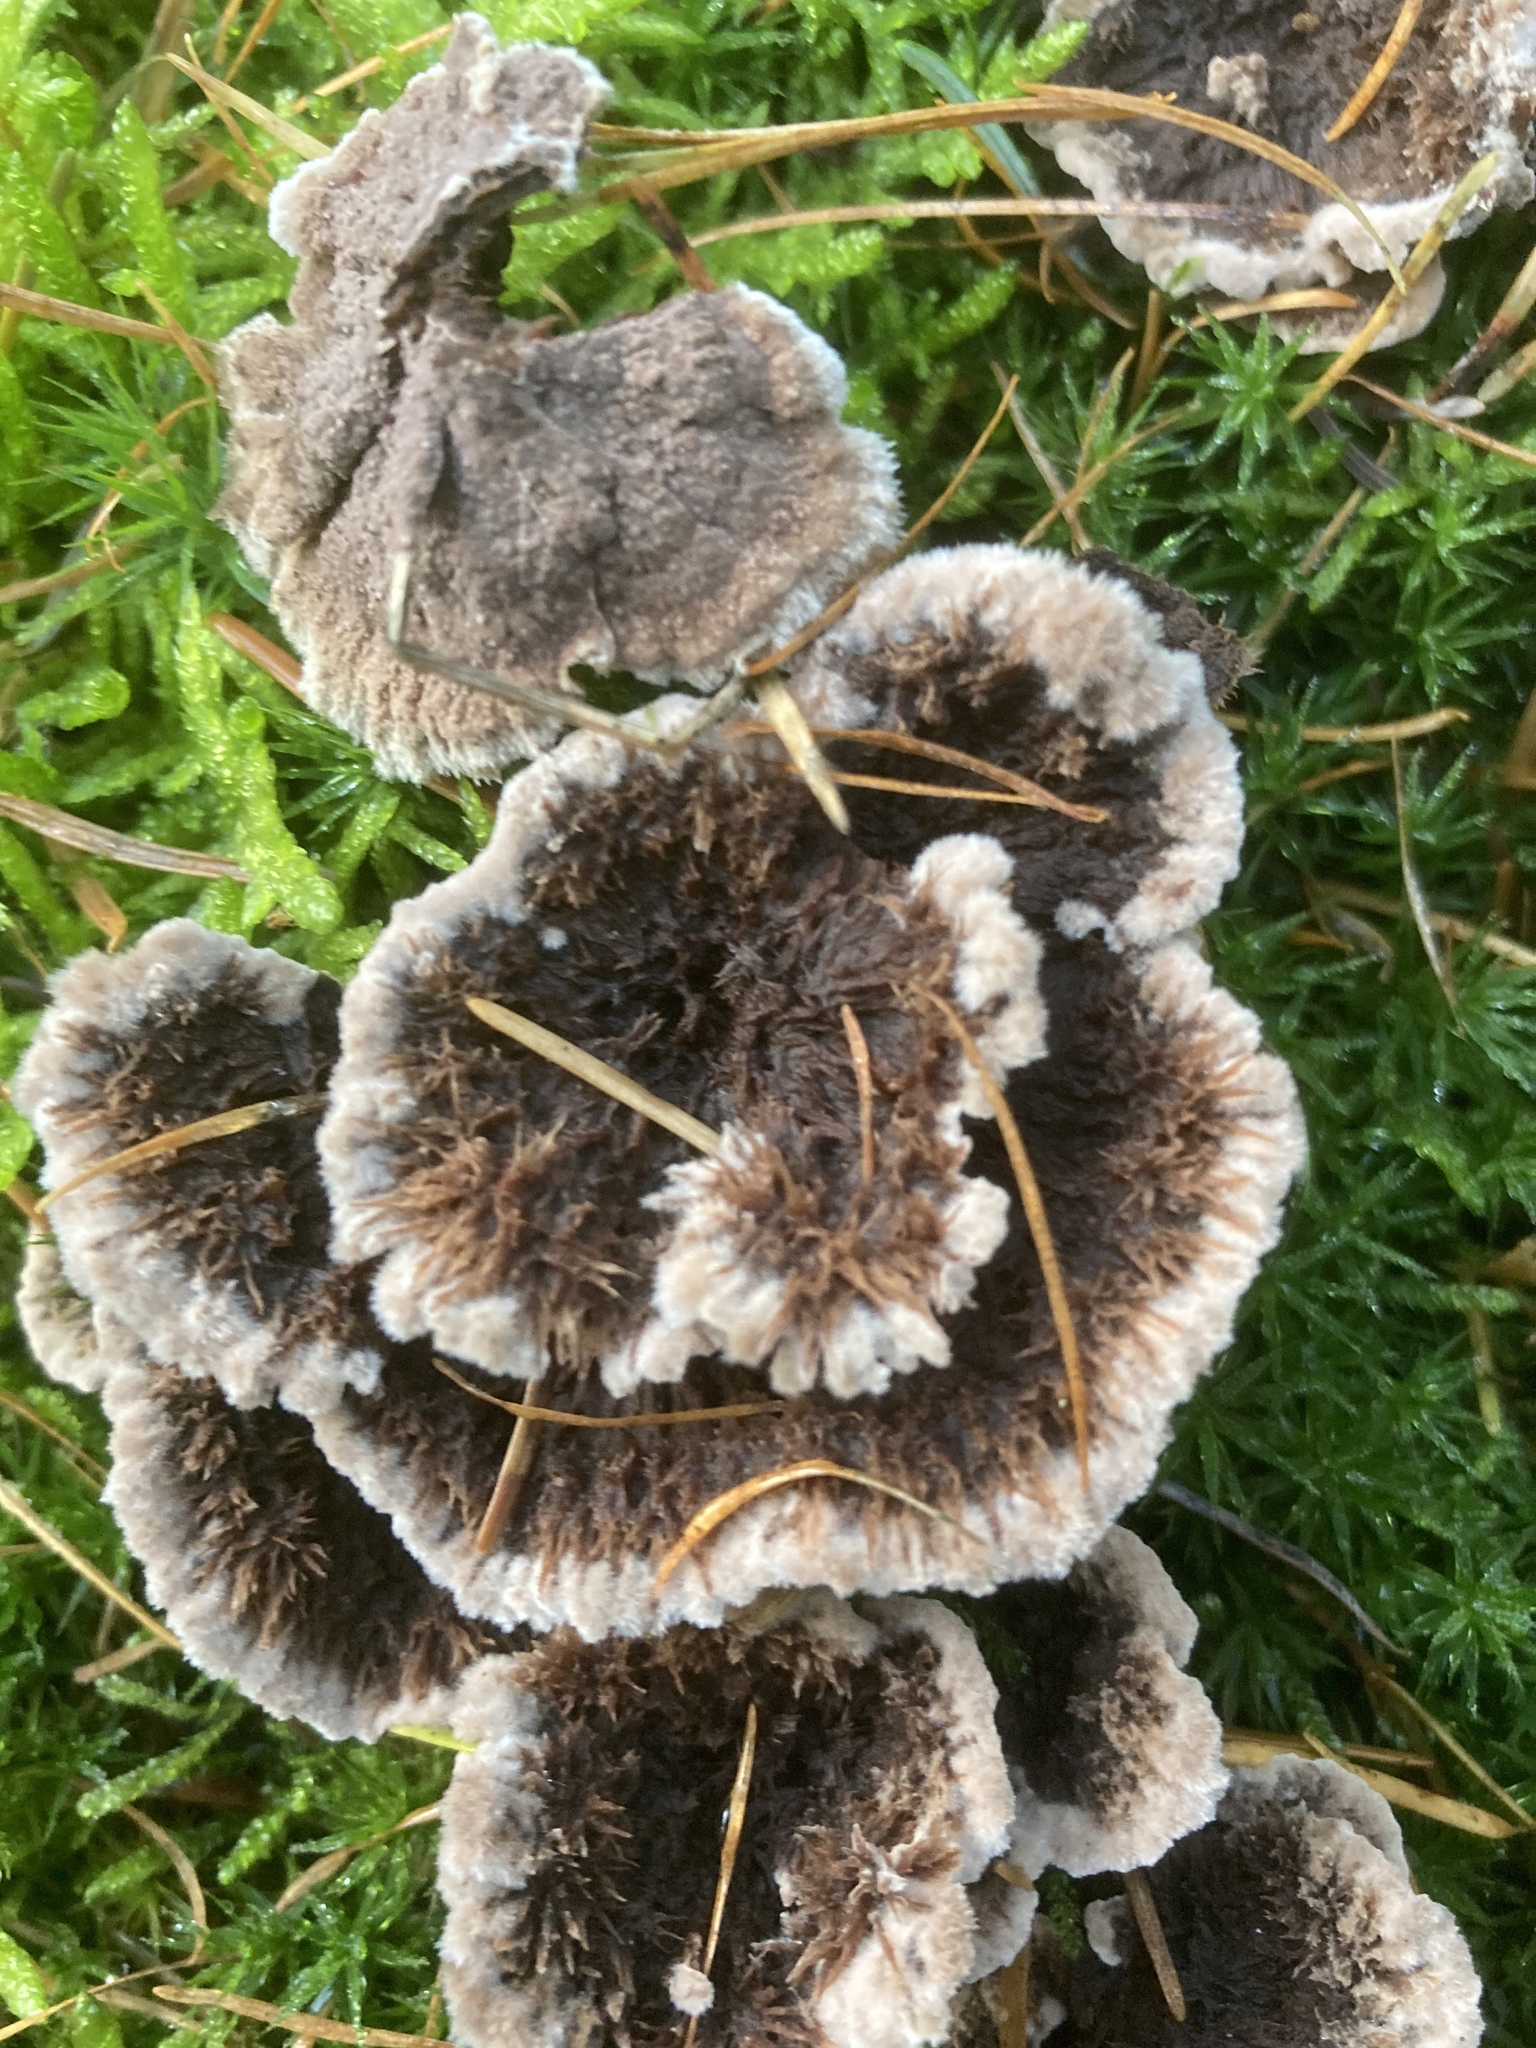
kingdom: Fungi
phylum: Basidiomycota
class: Agaricomycetes
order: Thelephorales
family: Thelephoraceae
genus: Thelephora
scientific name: Thelephora terrestris
